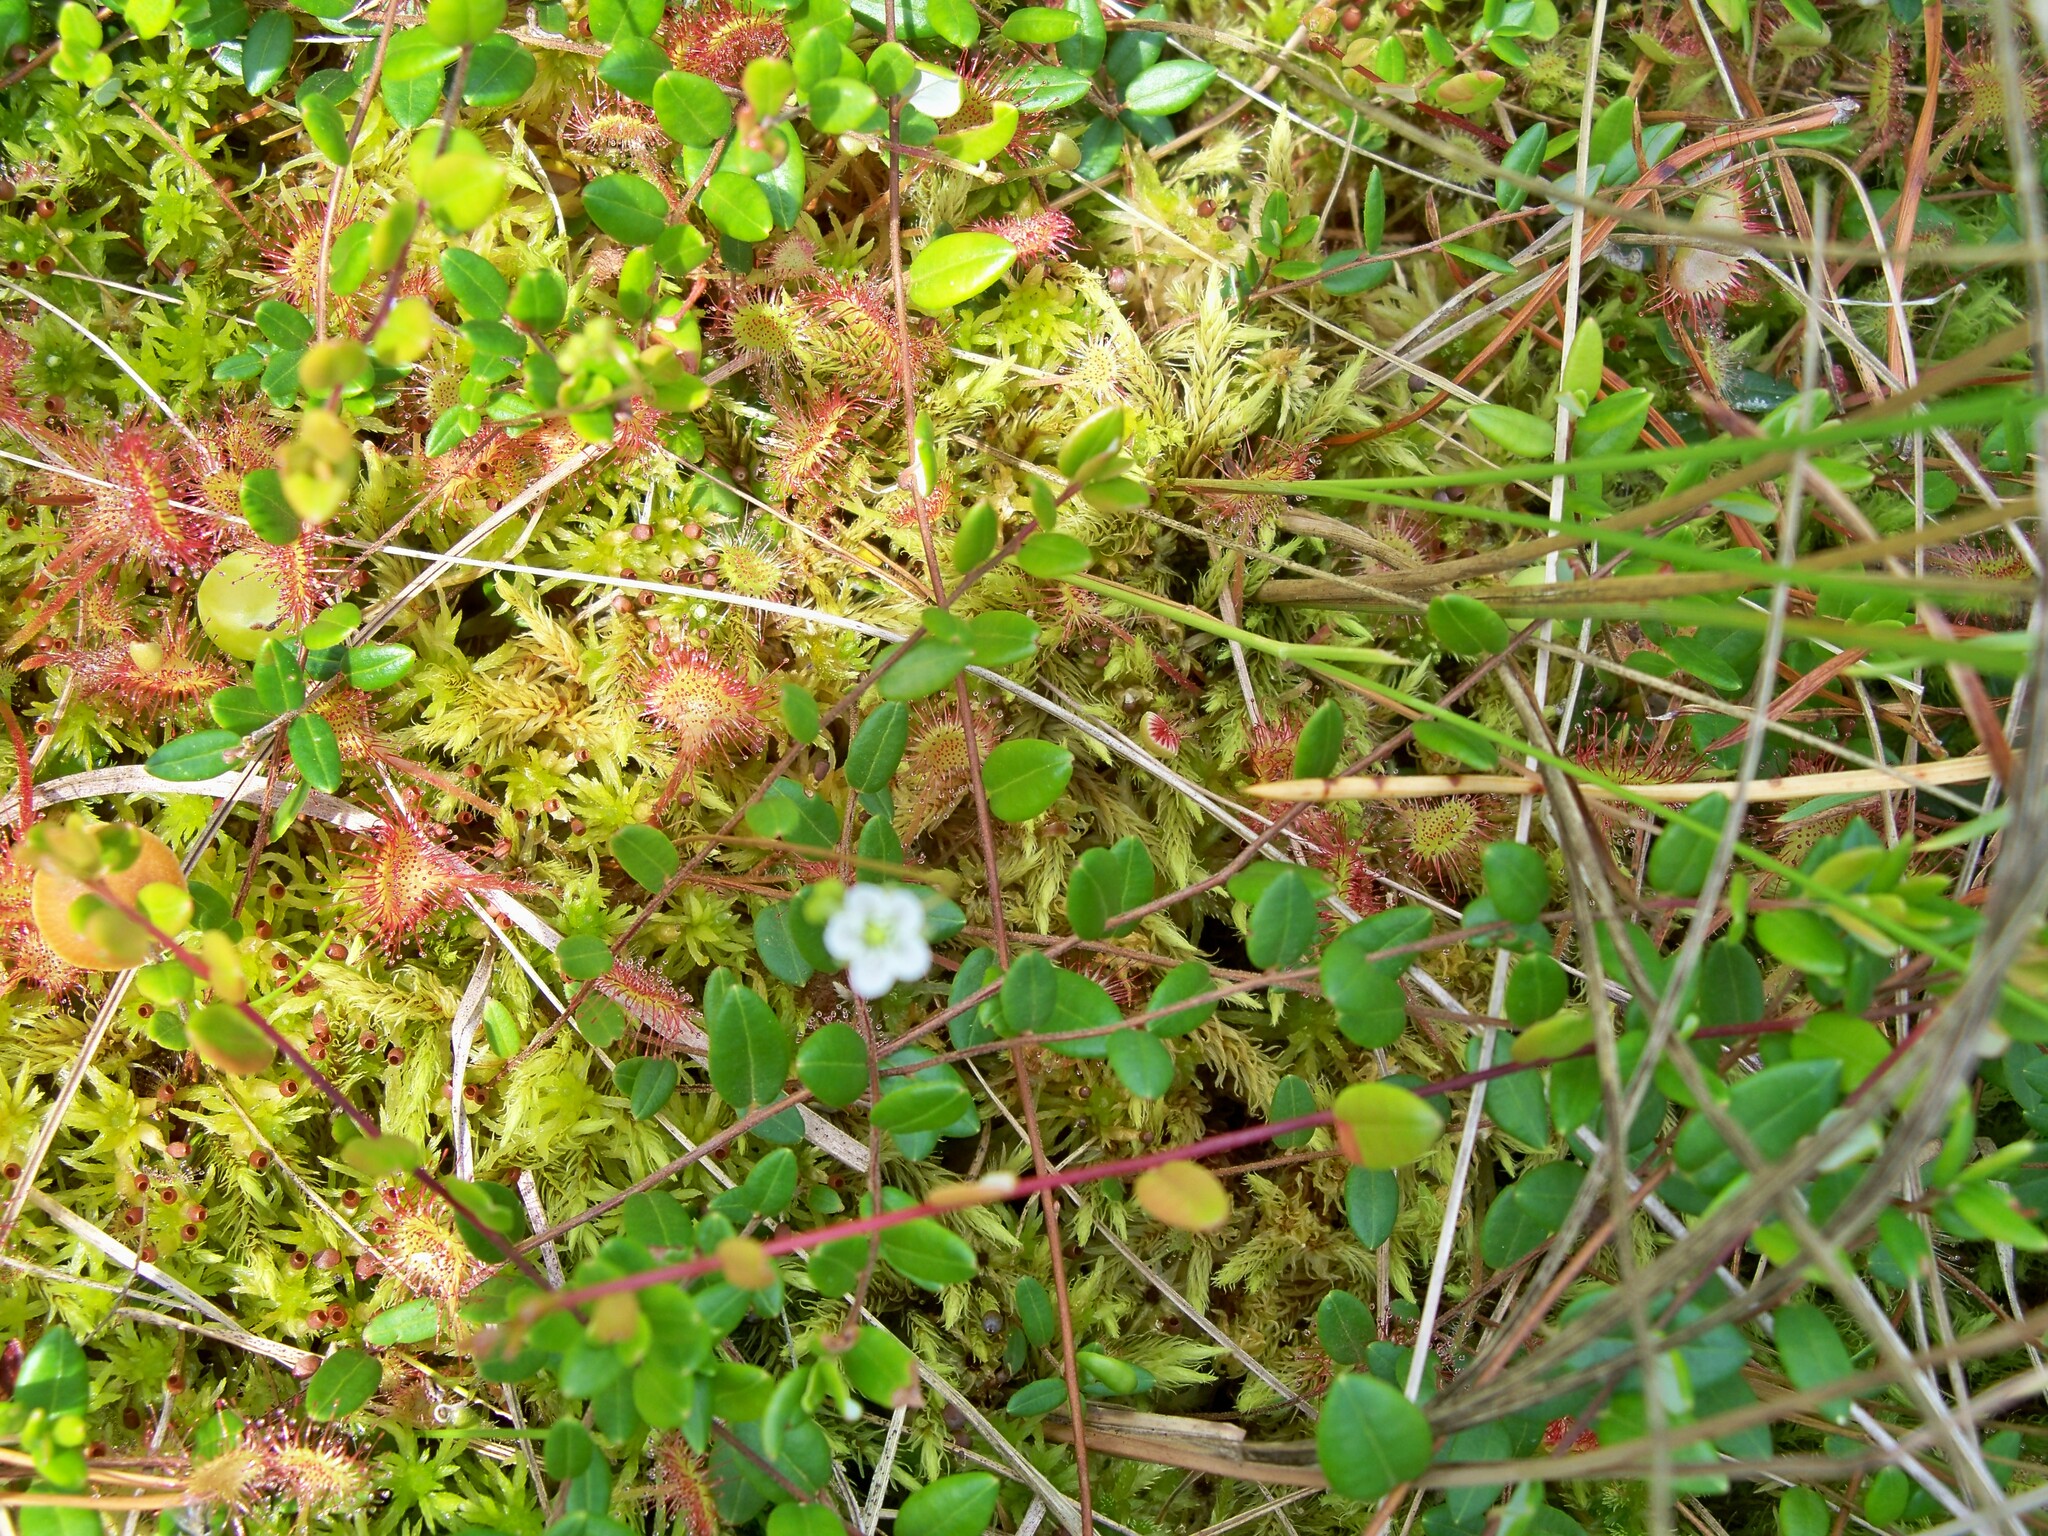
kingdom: Plantae
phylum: Tracheophyta
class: Magnoliopsida
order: Caryophyllales
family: Droseraceae
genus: Drosera
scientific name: Drosera rotundifolia
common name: Round-leaved sundew
